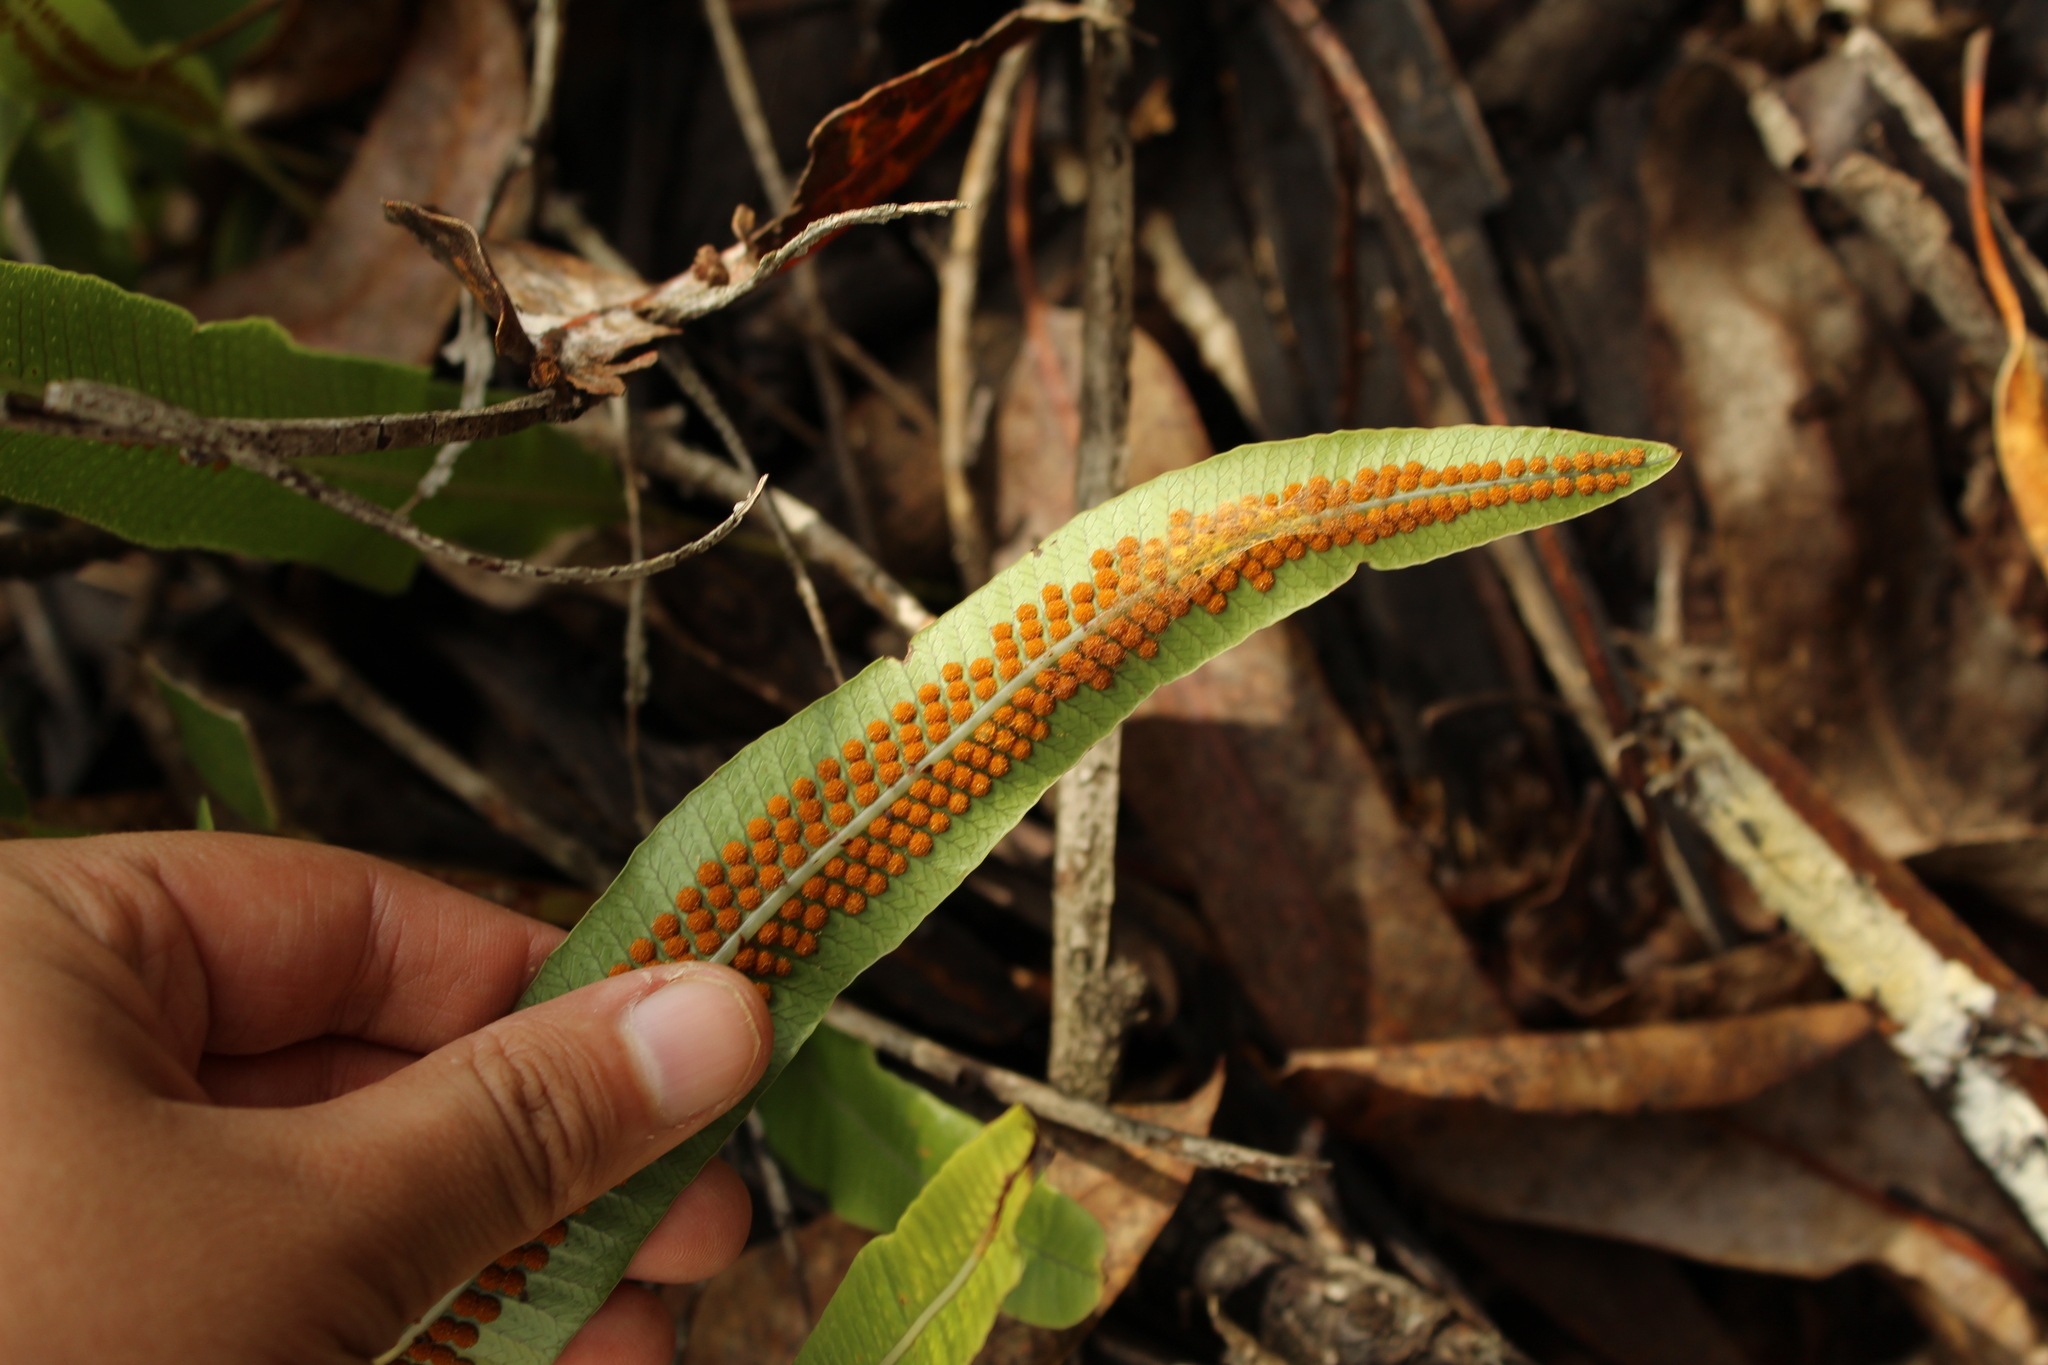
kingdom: Plantae
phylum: Tracheophyta
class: Polypodiopsida
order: Polypodiales
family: Polypodiaceae
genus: Serpocaulon
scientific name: Serpocaulon levigatum
